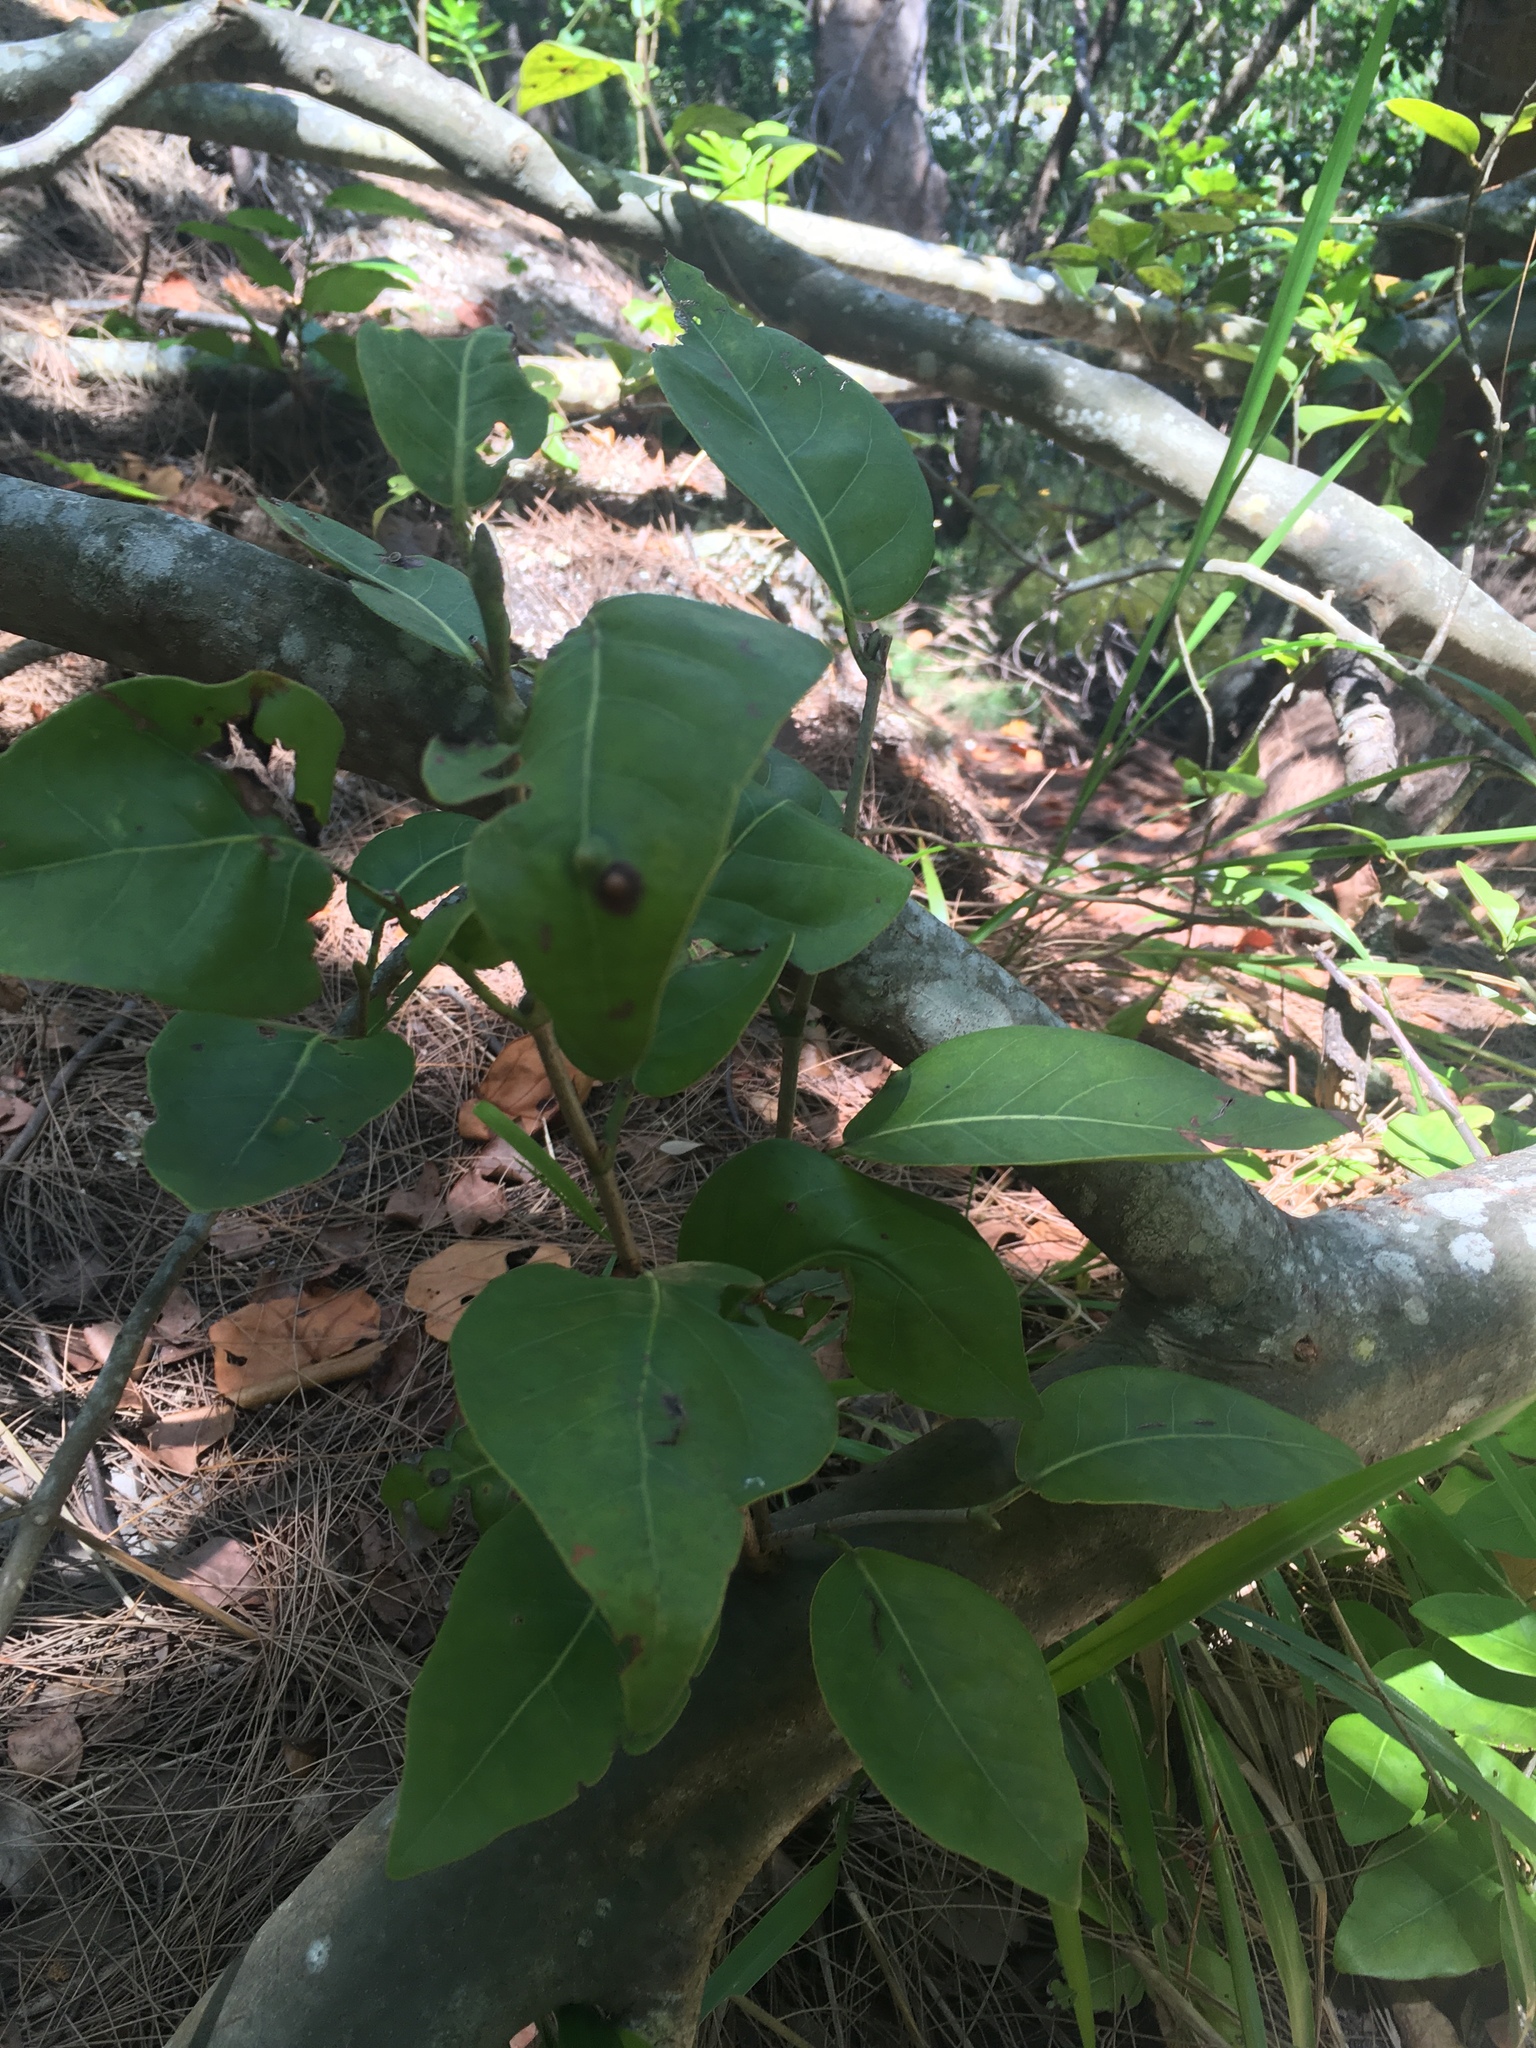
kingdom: Plantae
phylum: Tracheophyta
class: Magnoliopsida
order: Caryophyllales
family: Polygonaceae
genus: Coccoloba
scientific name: Coccoloba diversifolia
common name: Pigeon-plum
